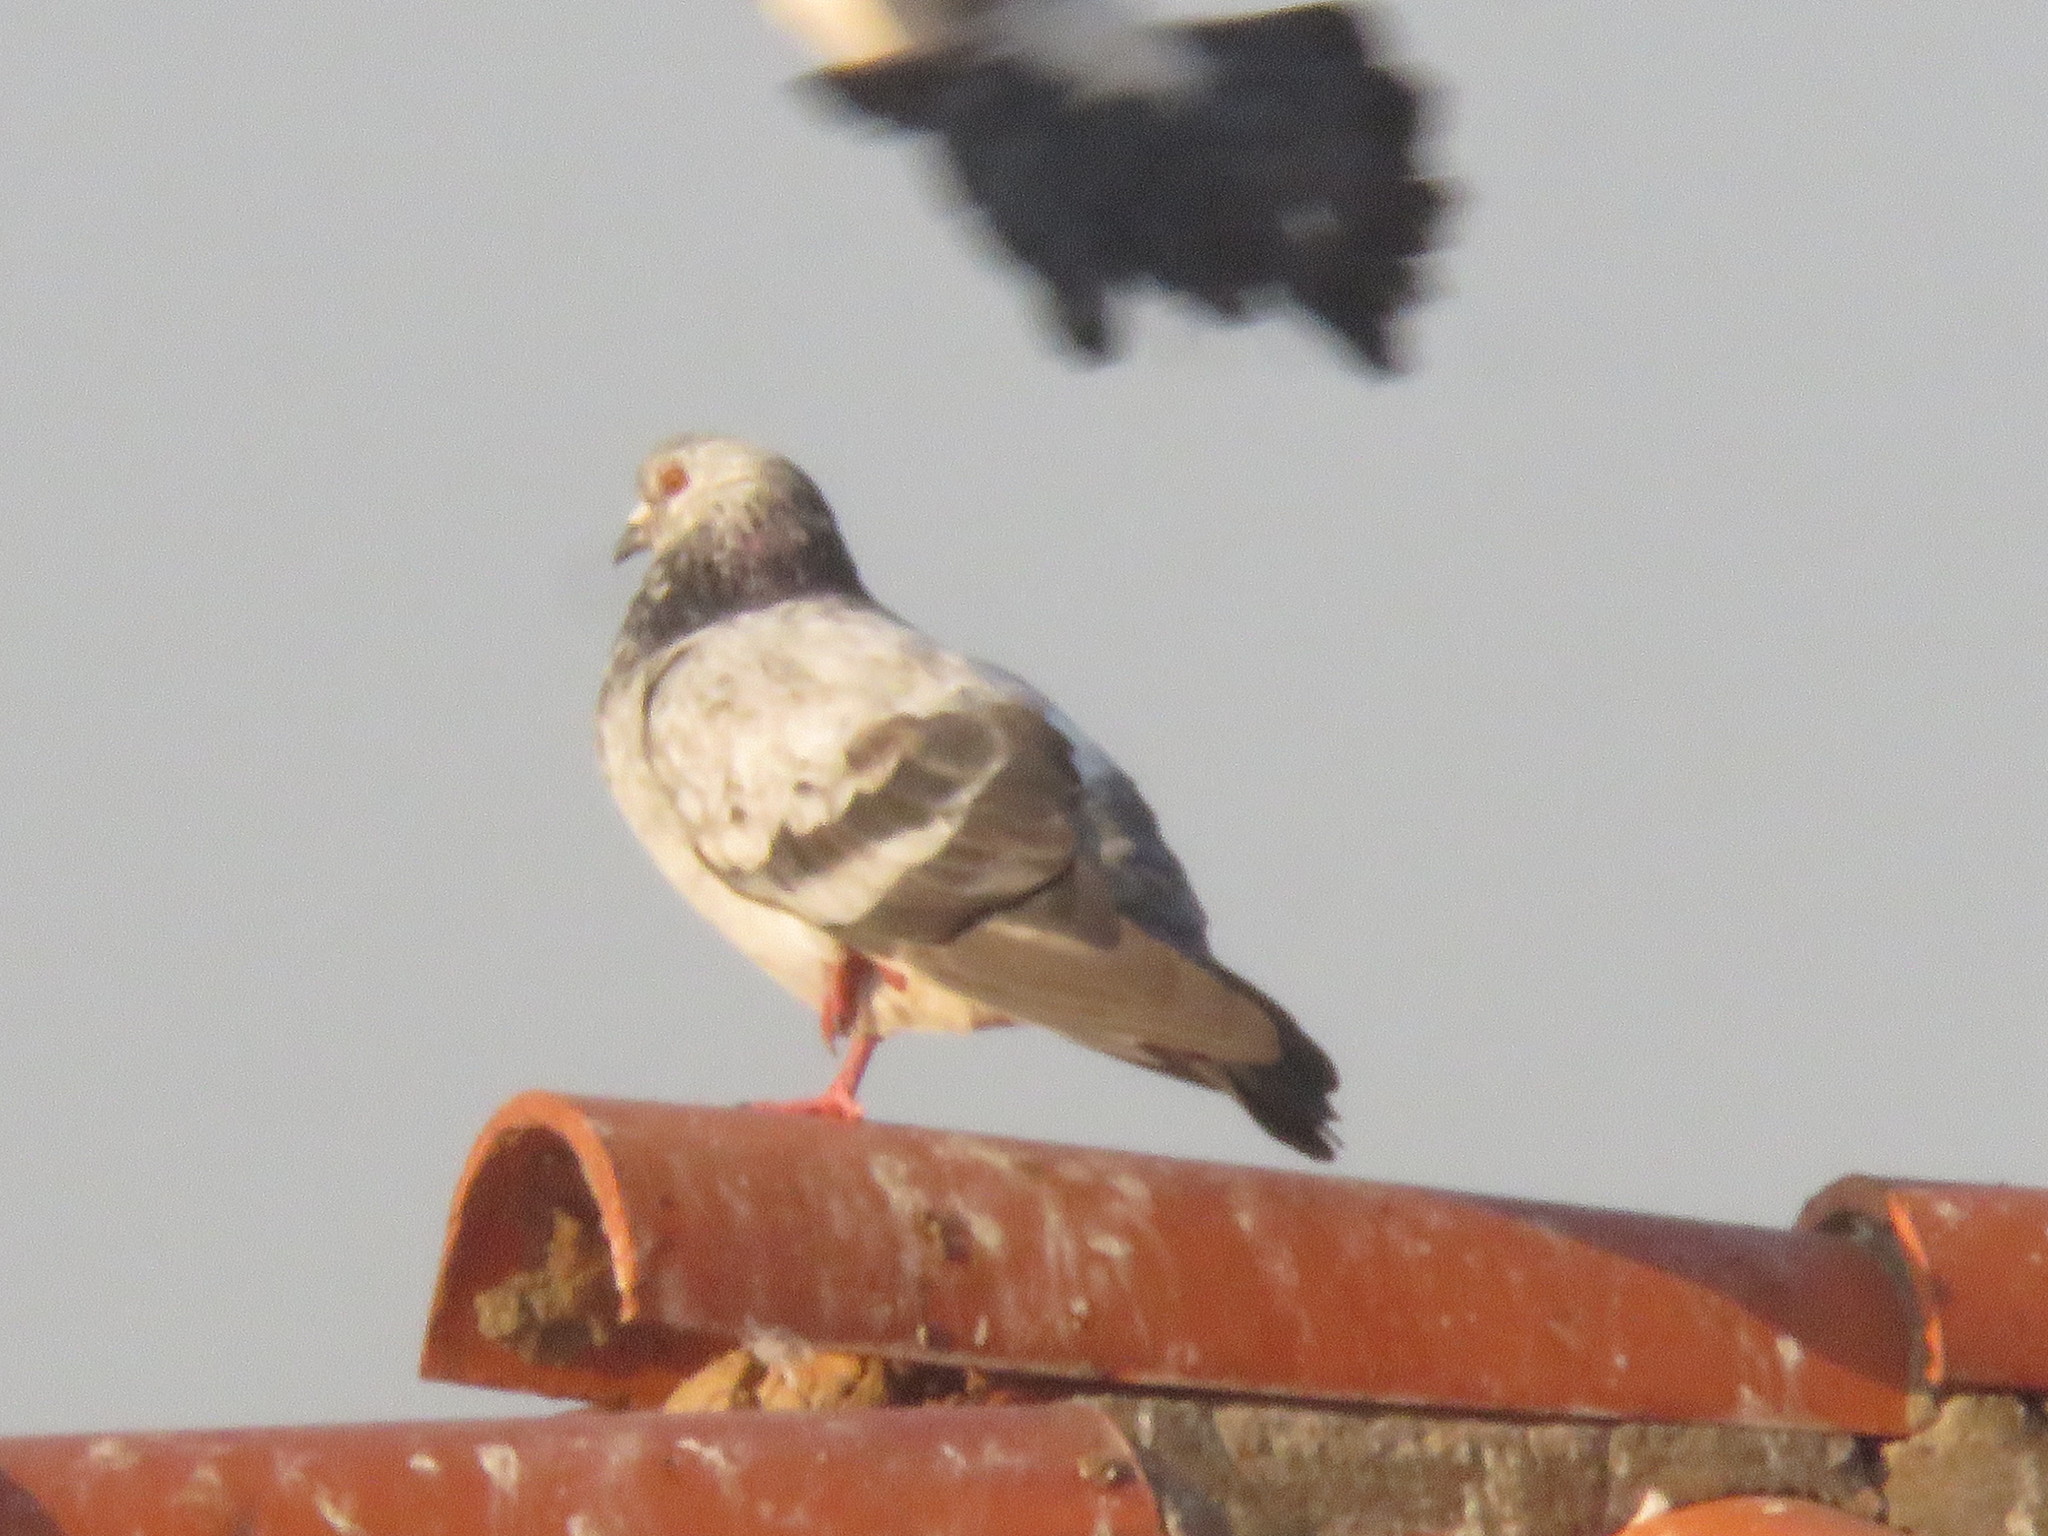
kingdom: Animalia
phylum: Chordata
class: Aves
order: Columbiformes
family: Columbidae
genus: Columba
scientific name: Columba livia
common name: Rock pigeon
